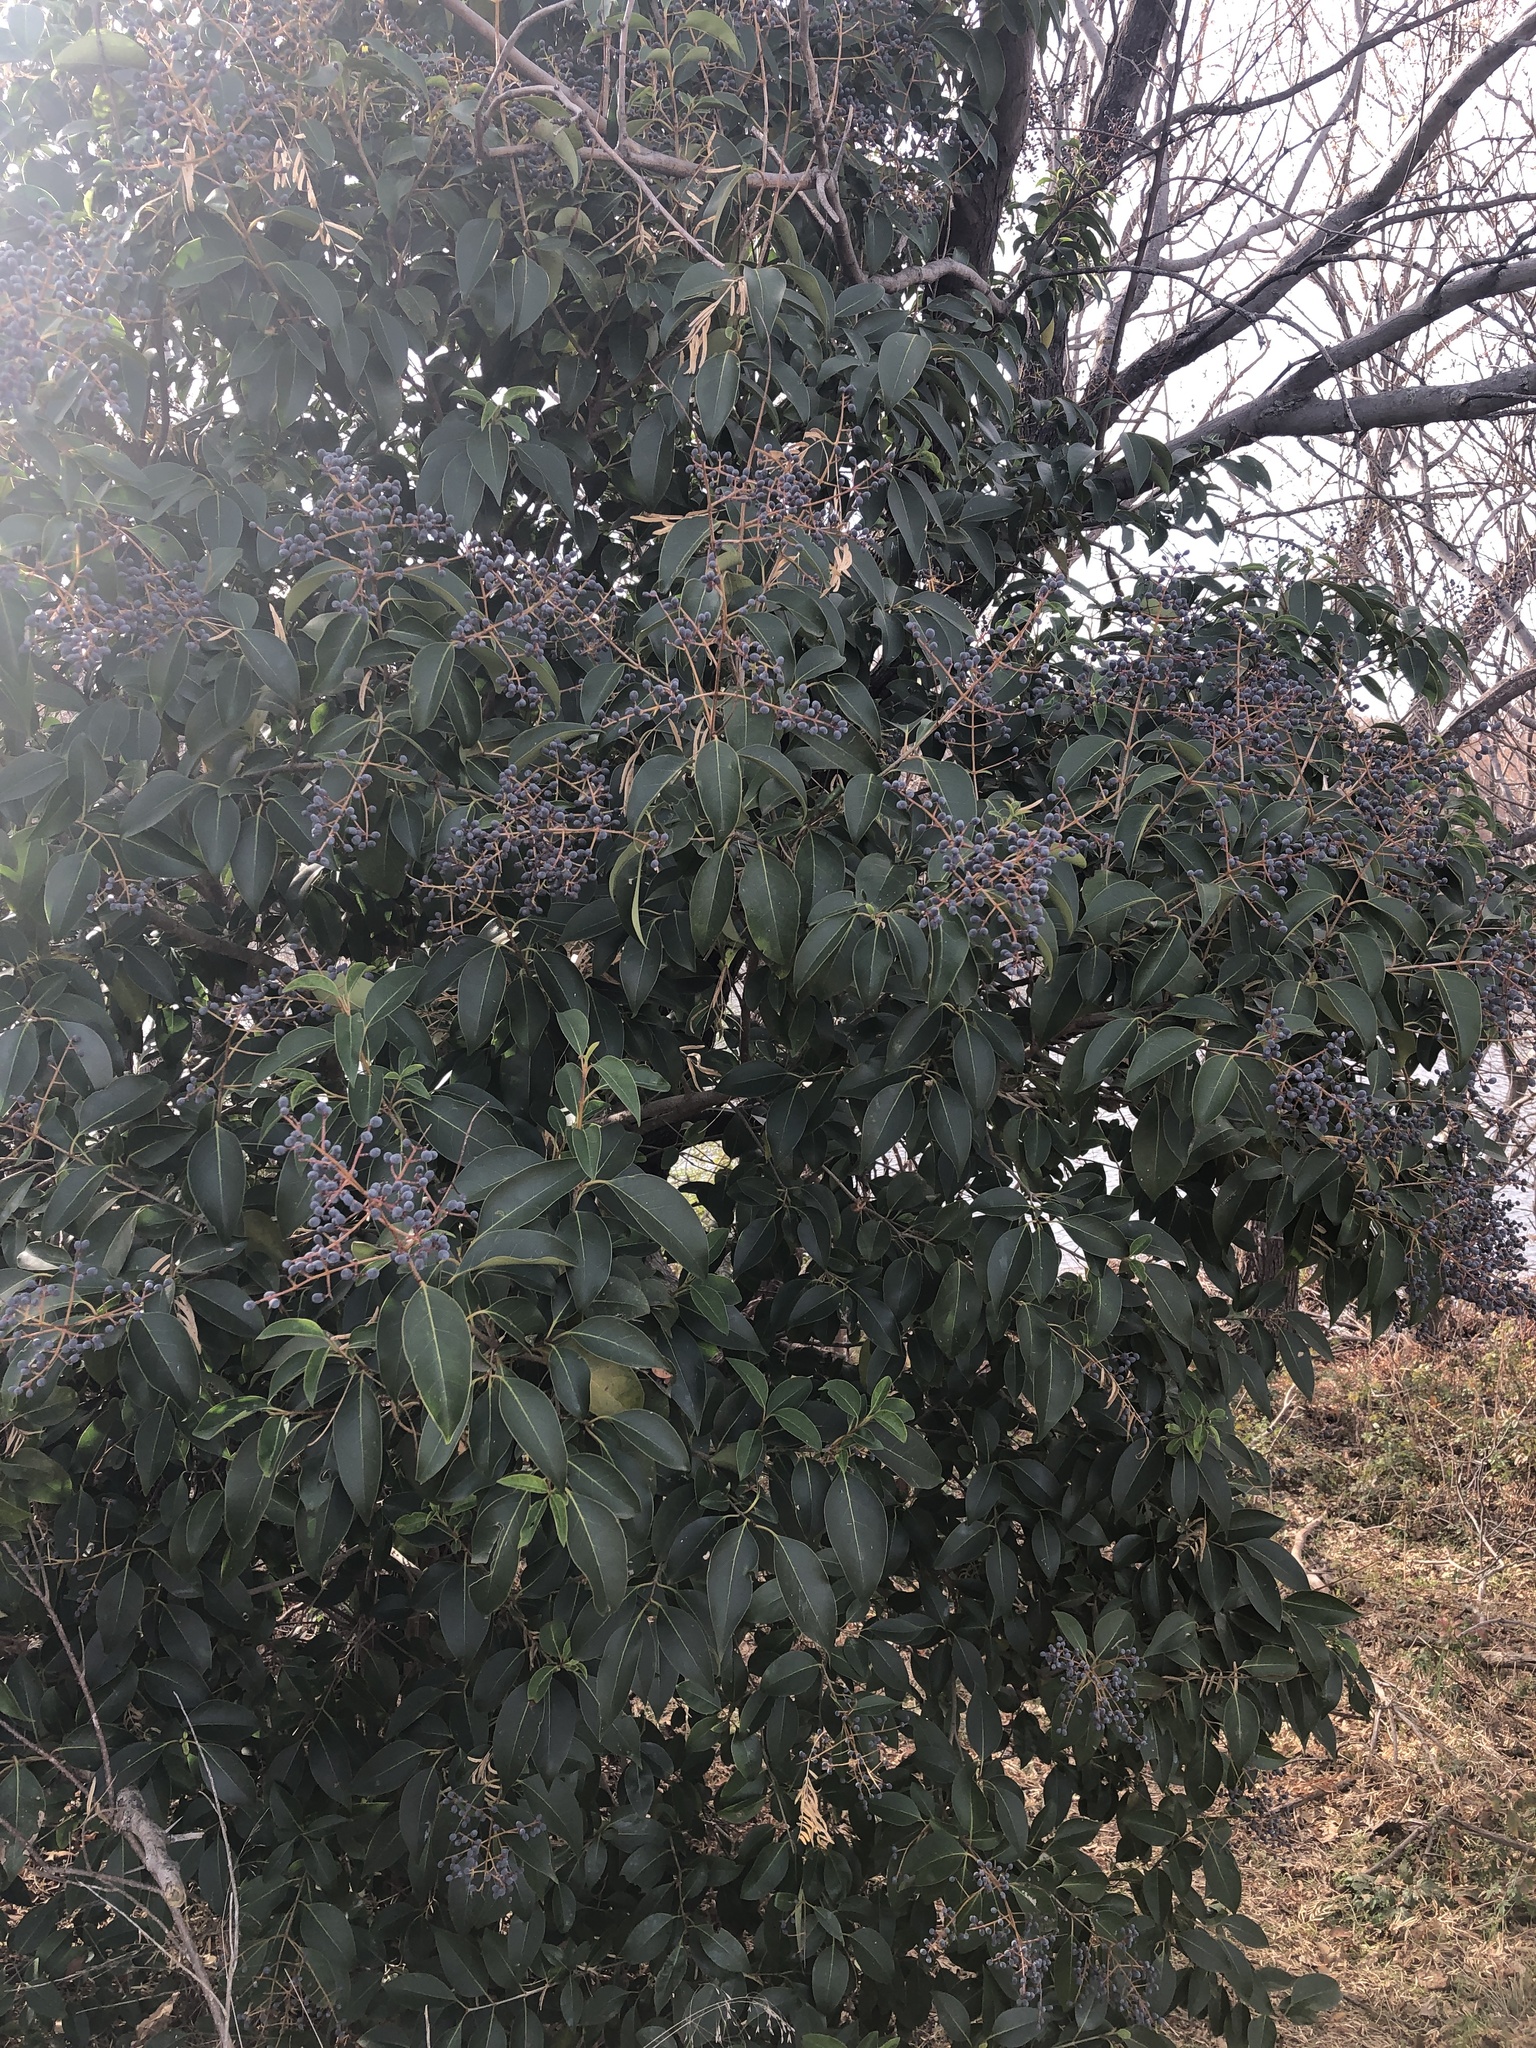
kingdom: Plantae
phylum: Tracheophyta
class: Magnoliopsida
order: Lamiales
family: Oleaceae
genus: Ligustrum
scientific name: Ligustrum lucidum
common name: Glossy privet
